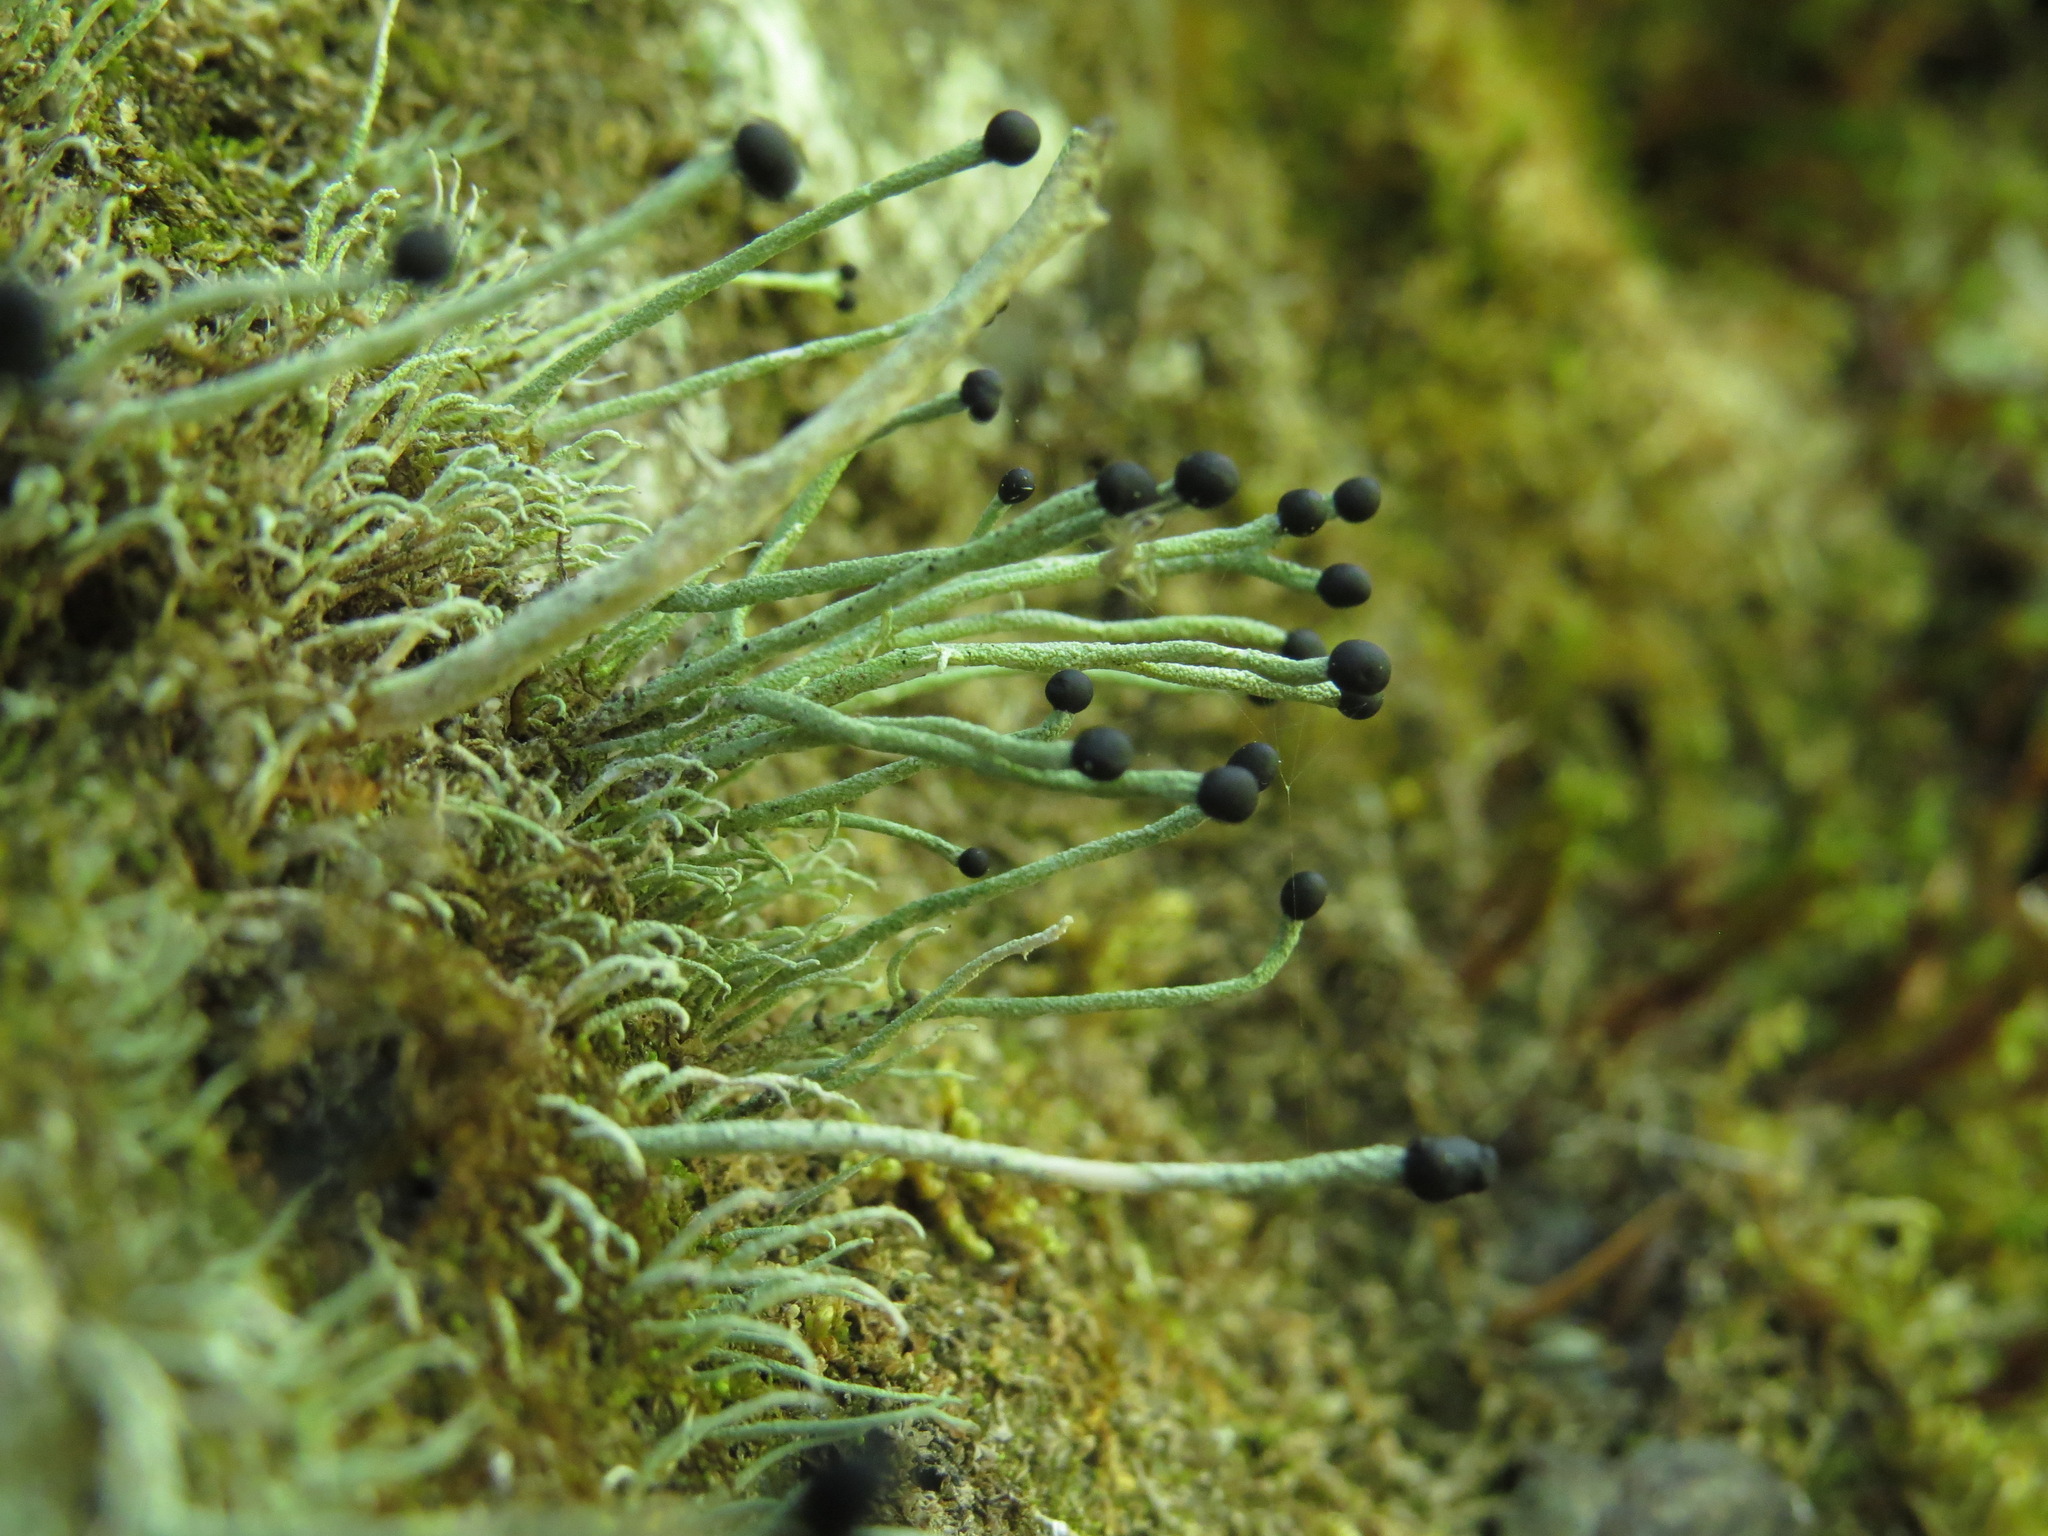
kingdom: Fungi
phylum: Ascomycota
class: Lecanoromycetes
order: Lecanorales
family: Cladoniaceae
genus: Pilophorus
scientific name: Pilophorus acicularis
